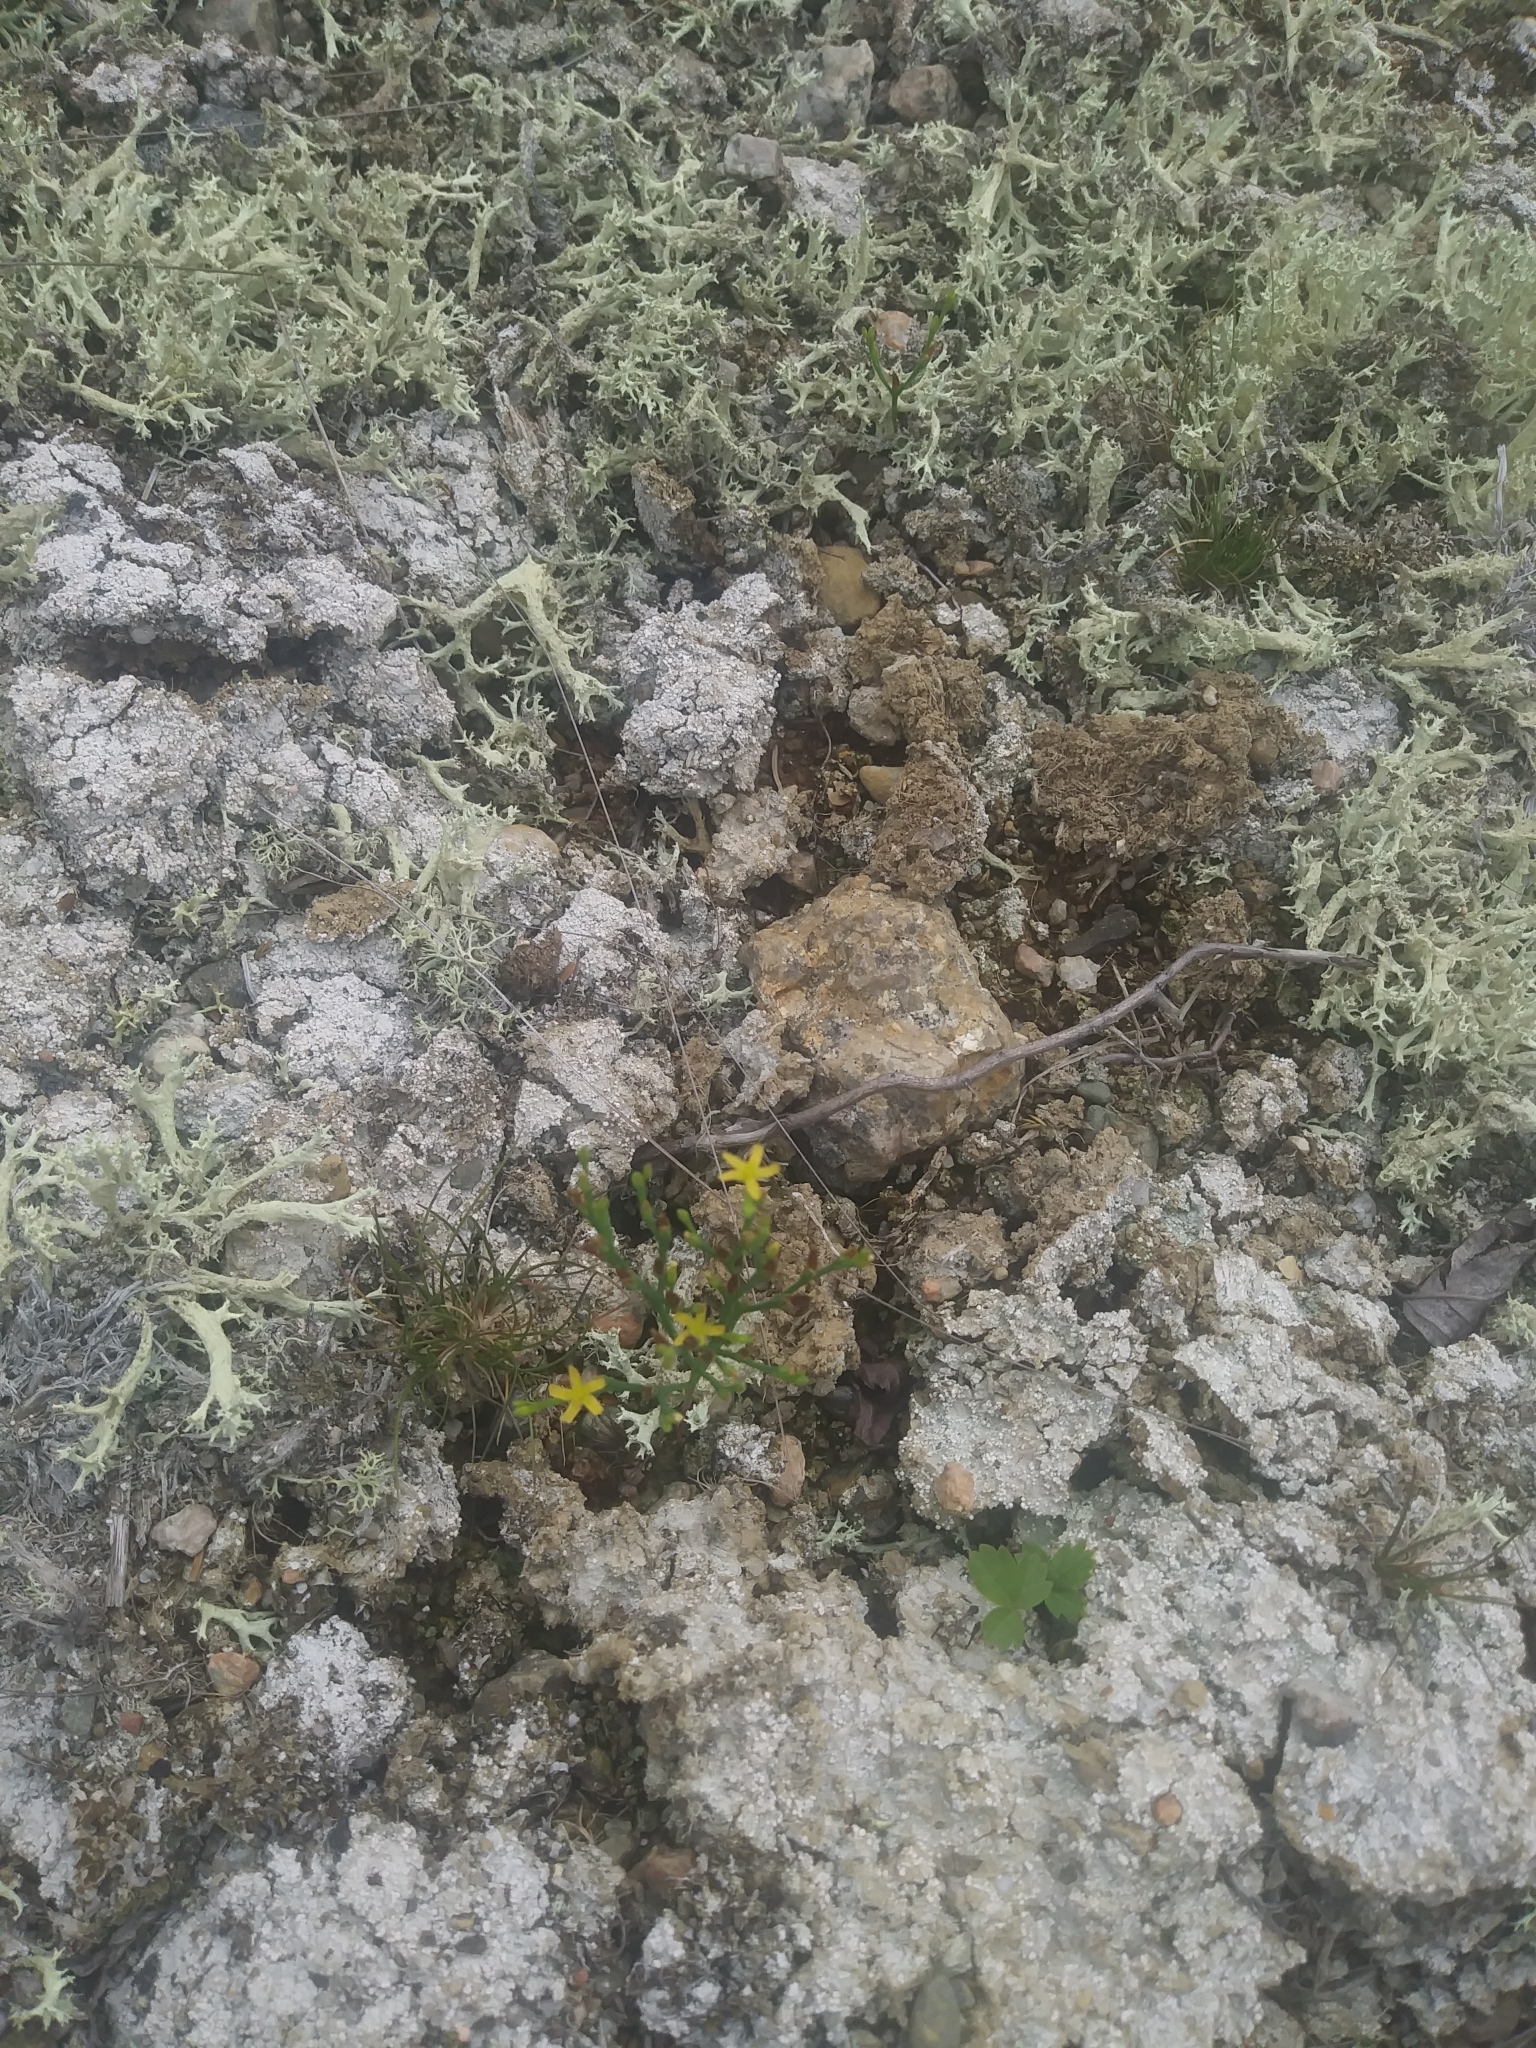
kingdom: Plantae
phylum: Tracheophyta
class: Magnoliopsida
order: Malpighiales
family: Hypericaceae
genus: Hypericum
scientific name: Hypericum gentianoides
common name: Gentian-leaved st. john's-wort
